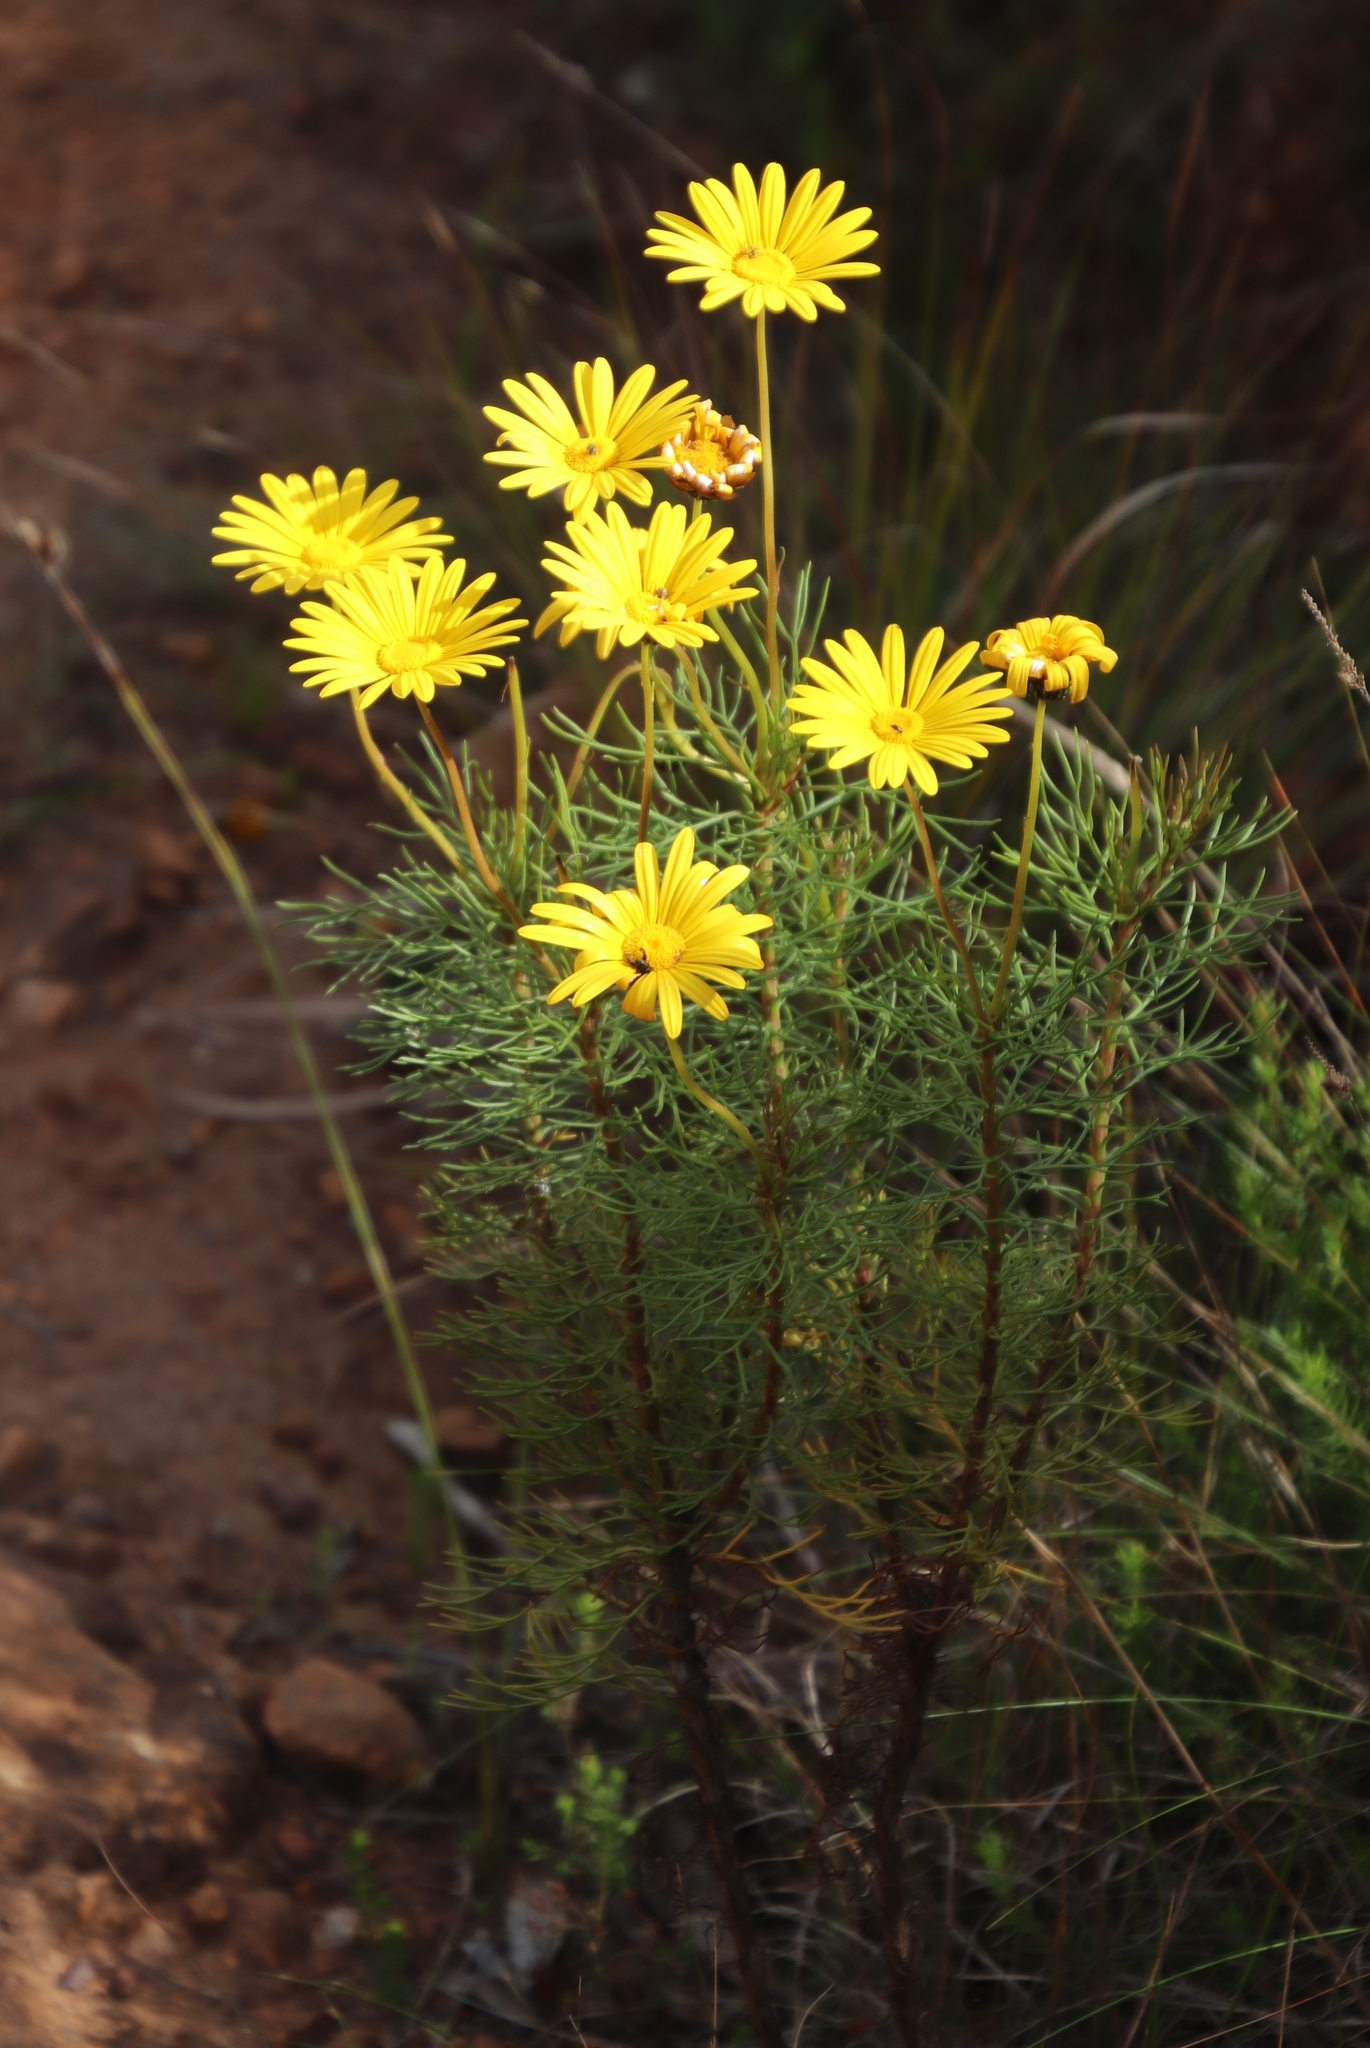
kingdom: Plantae
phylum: Tracheophyta
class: Magnoliopsida
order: Asterales
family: Asteraceae
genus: Euryops
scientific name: Euryops abrotanifolius
